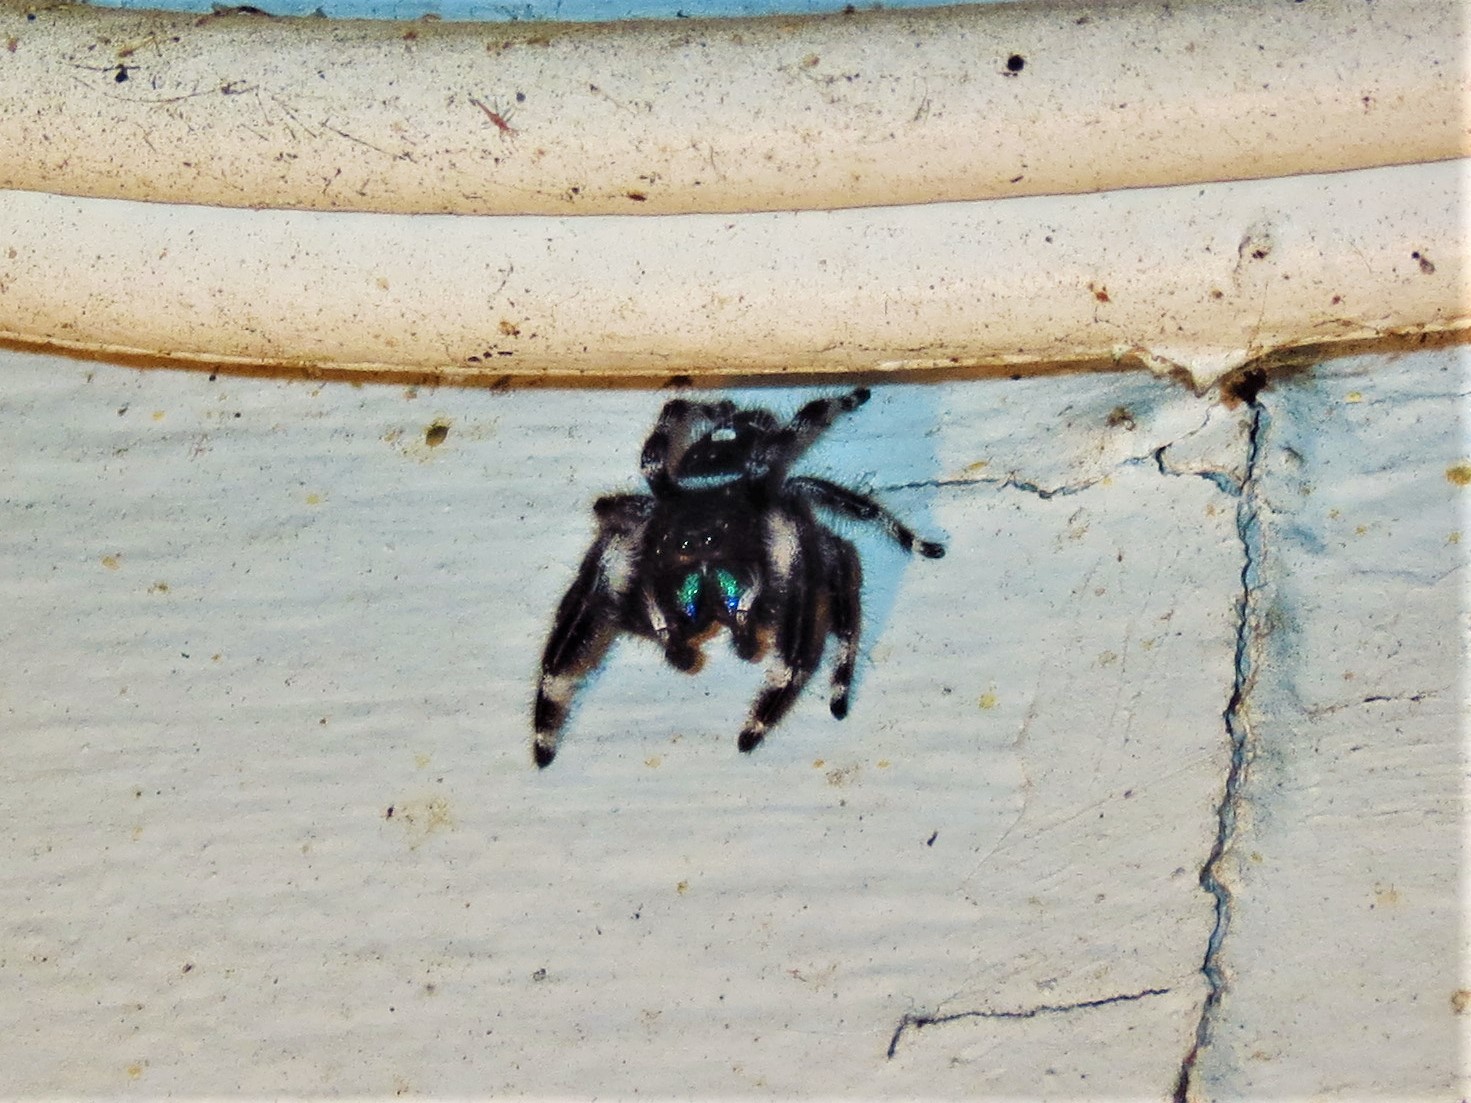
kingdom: Animalia
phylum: Arthropoda
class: Arachnida
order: Araneae
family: Salticidae
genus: Phidippus
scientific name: Phidippus audax
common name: Bold jumper
